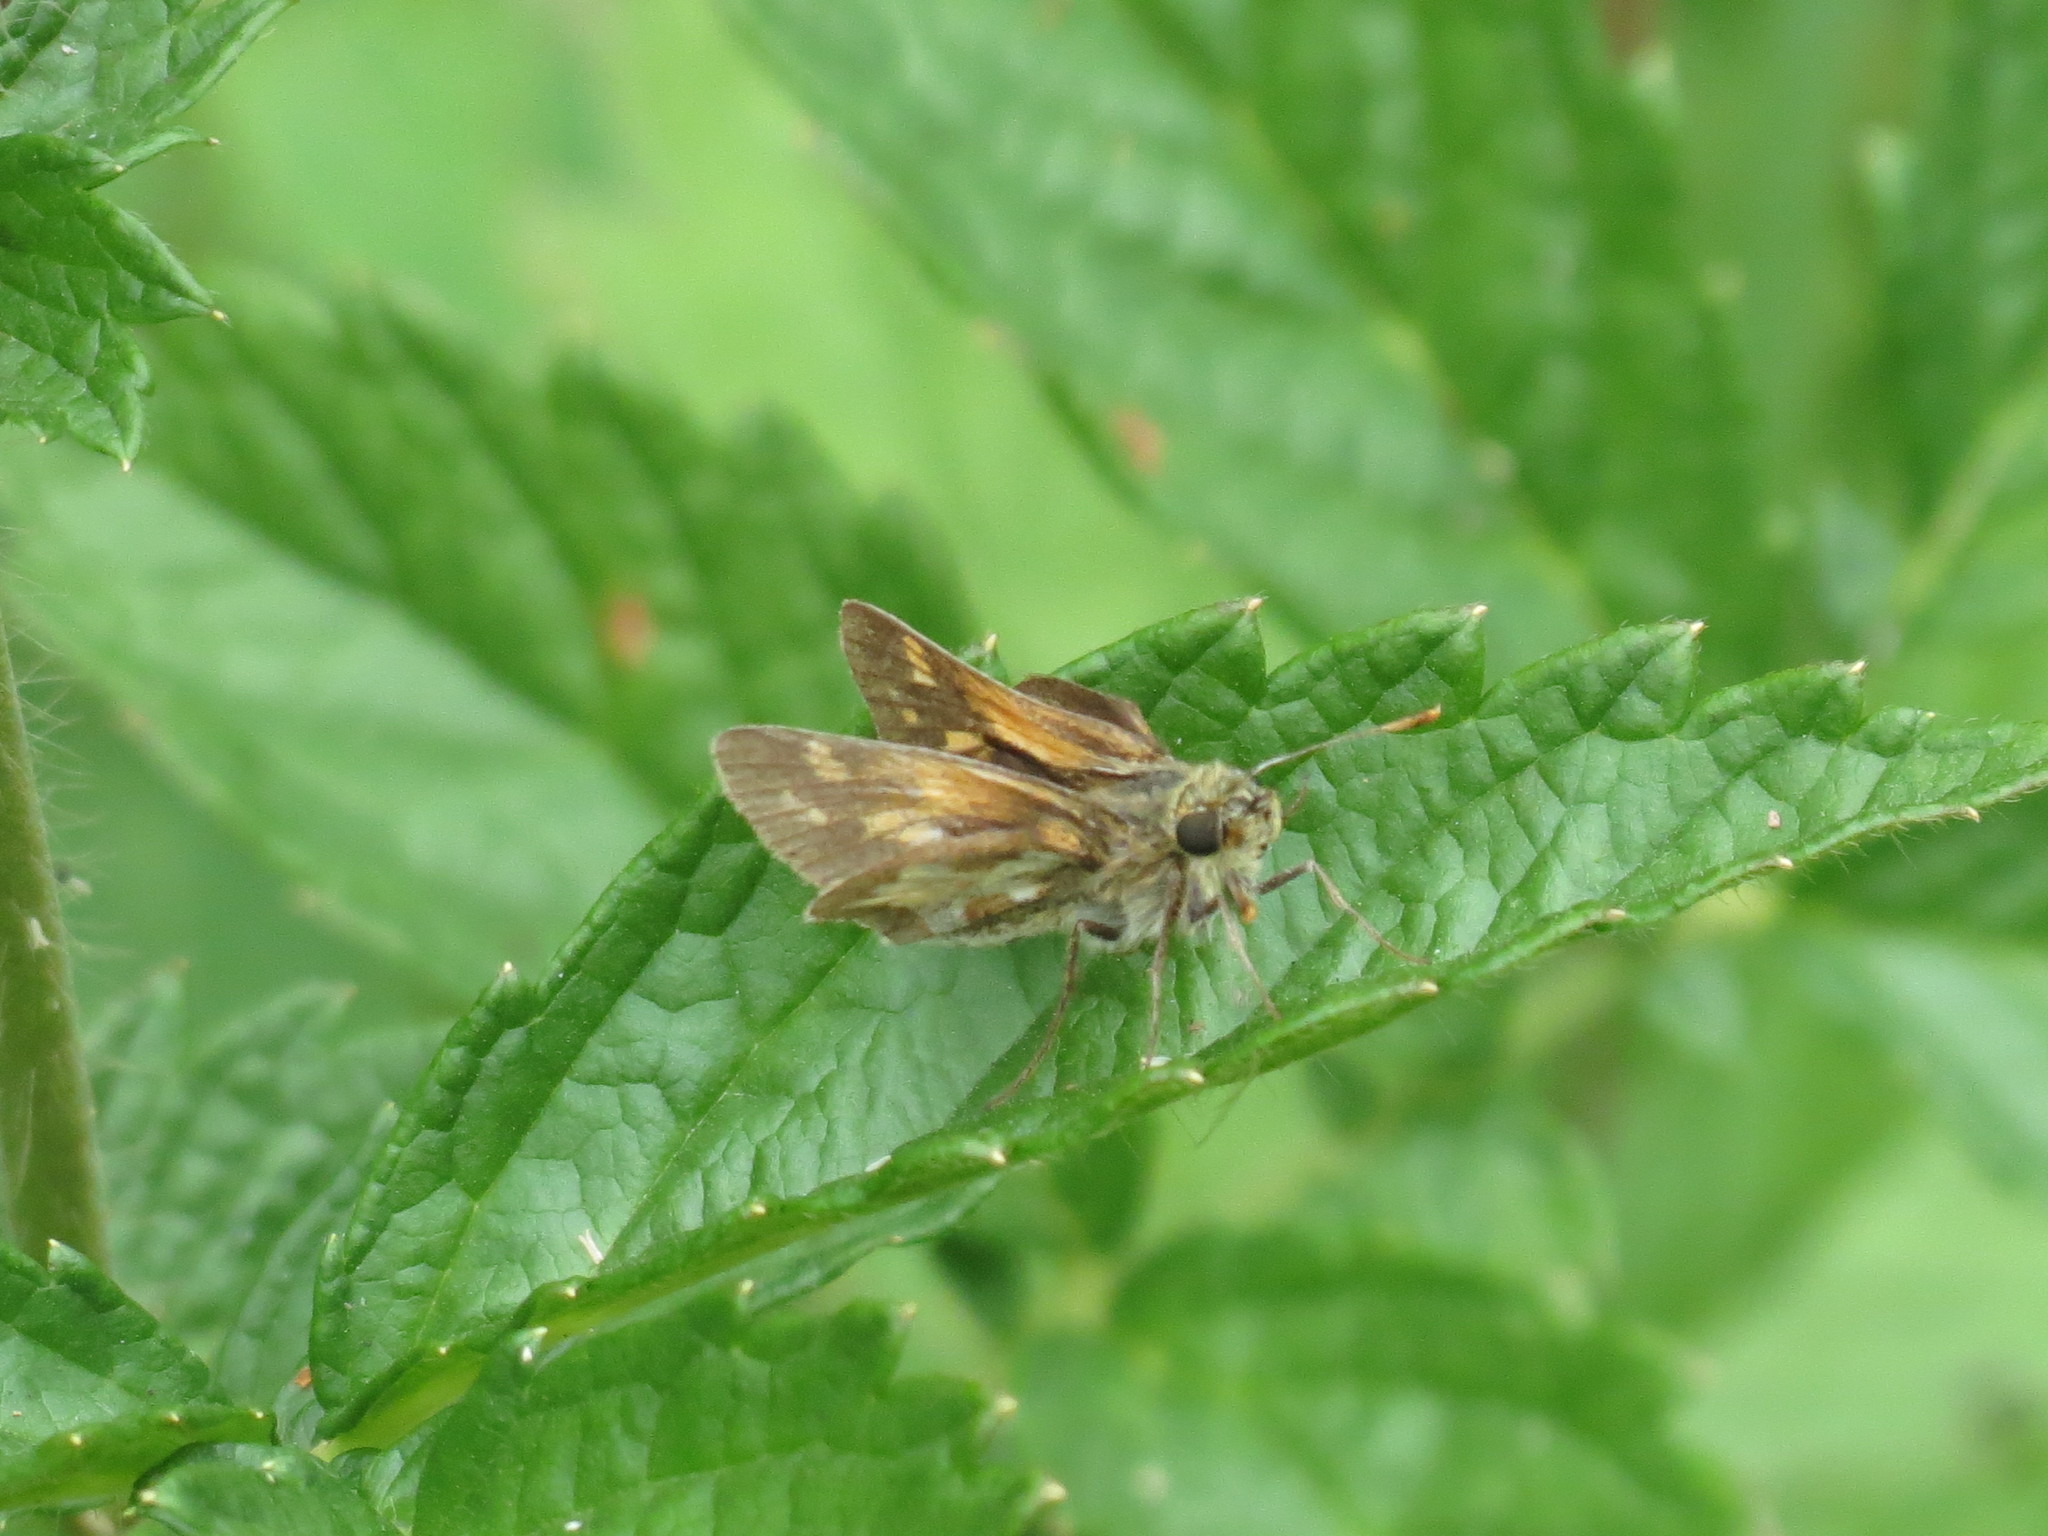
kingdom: Animalia
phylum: Arthropoda
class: Insecta
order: Lepidoptera
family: Hesperiidae
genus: Polites
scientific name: Polites coras
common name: Peck's skipper
